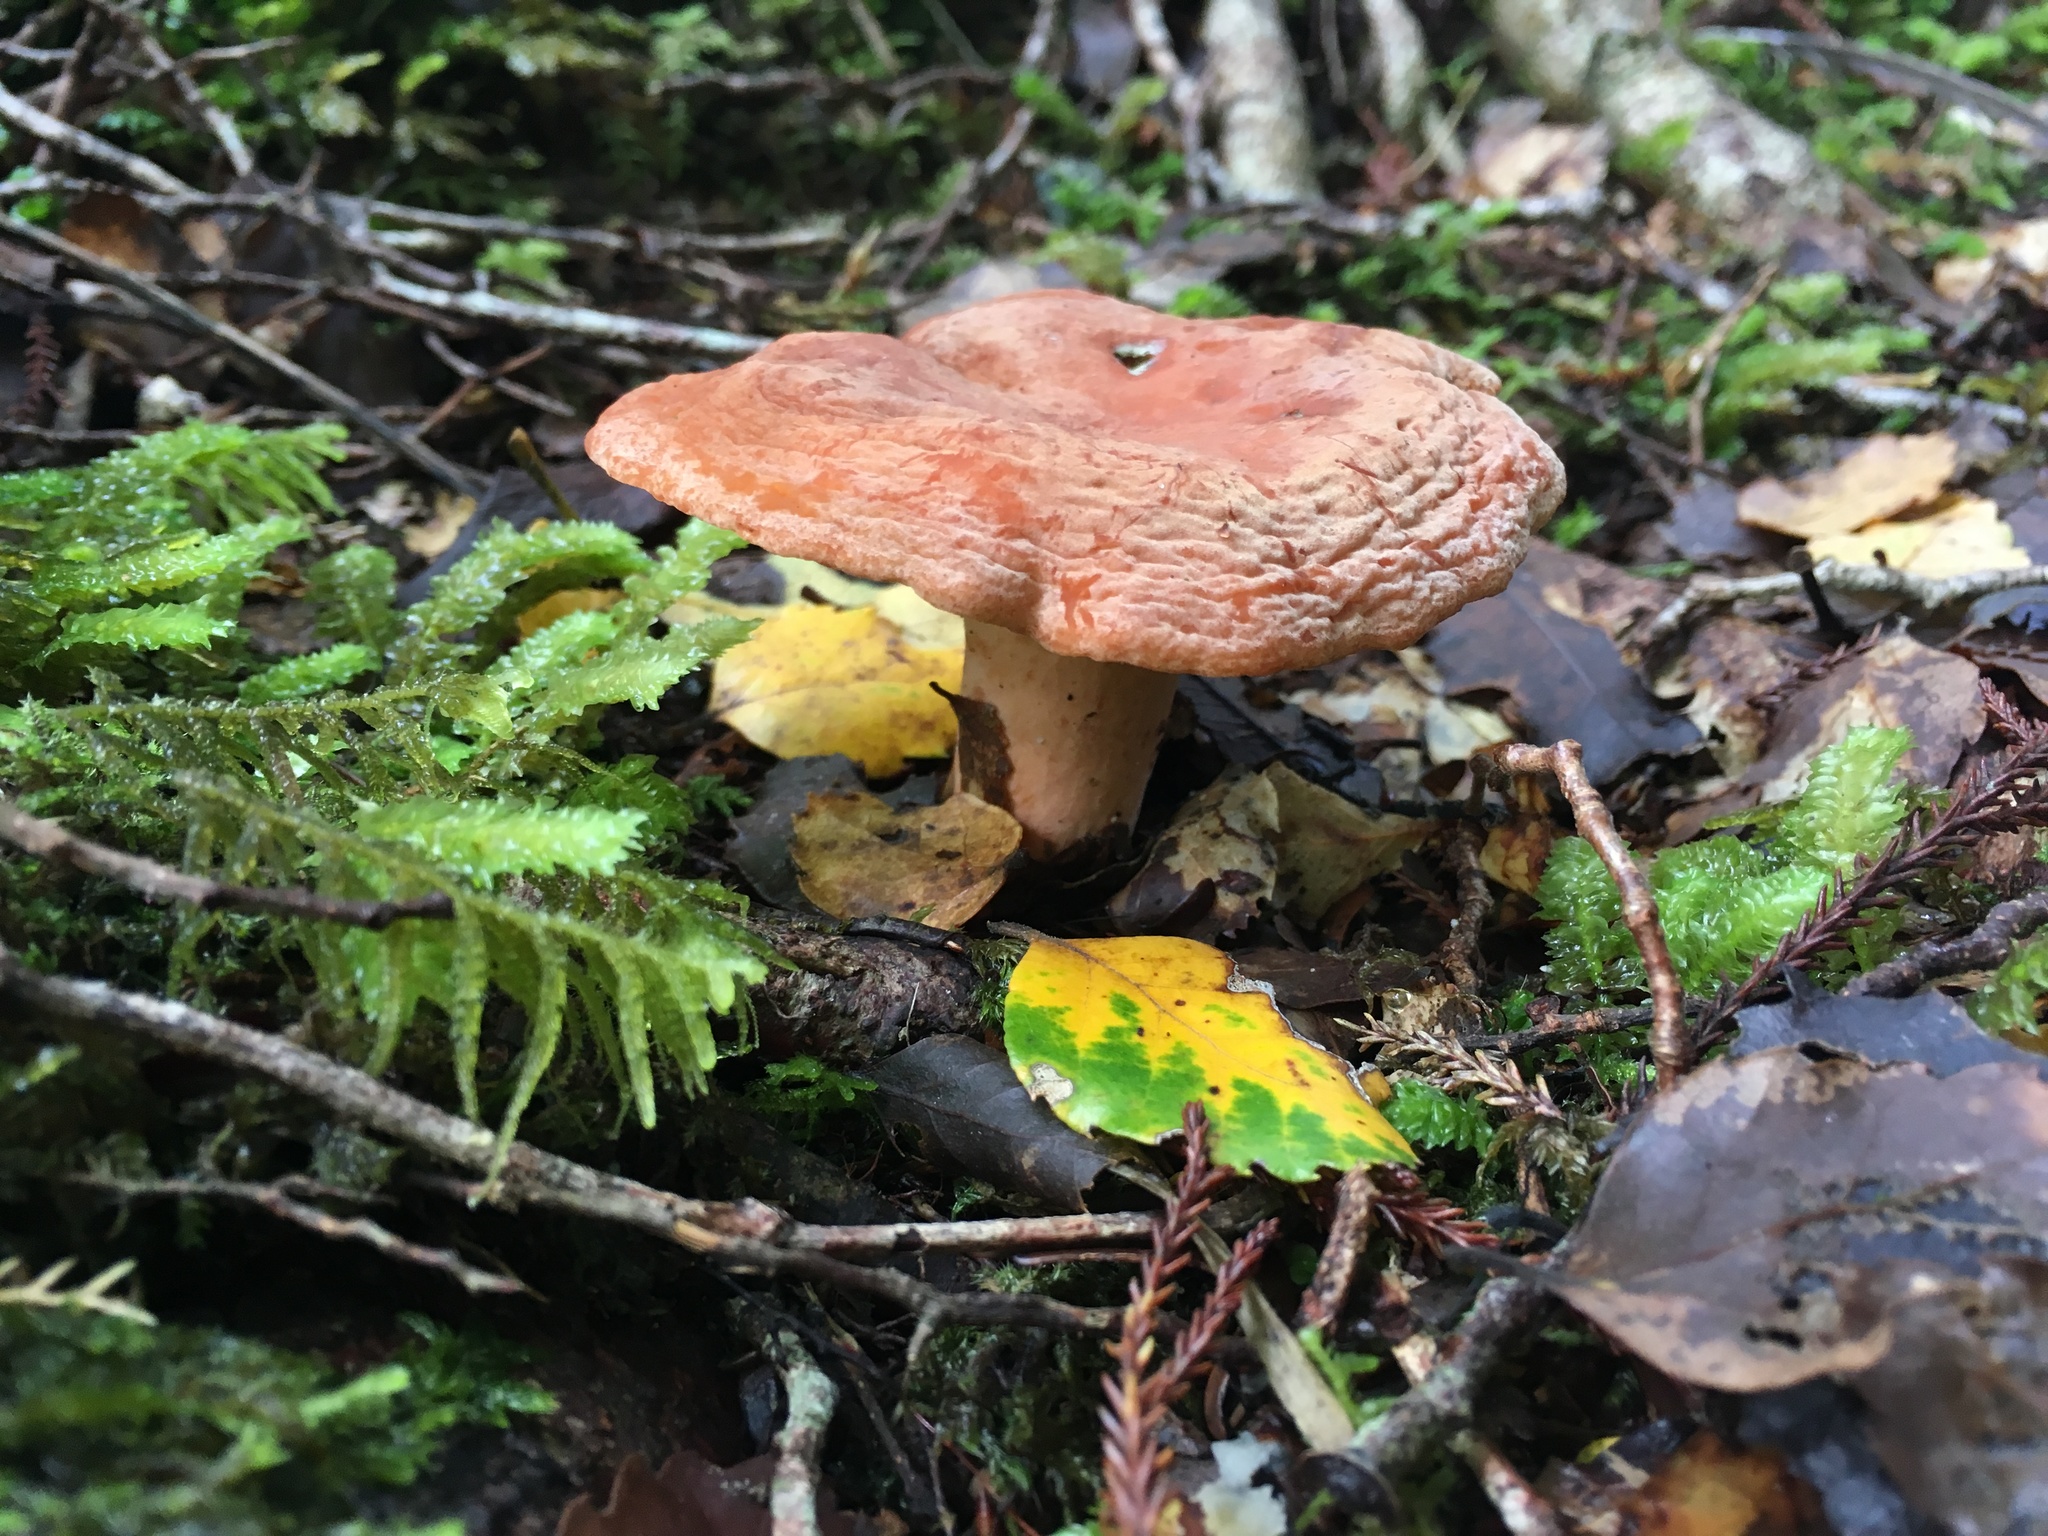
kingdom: Fungi
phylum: Basidiomycota
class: Agaricomycetes
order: Russulales
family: Russulaceae
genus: Lactifluus
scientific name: Lactifluus aurantioruber
